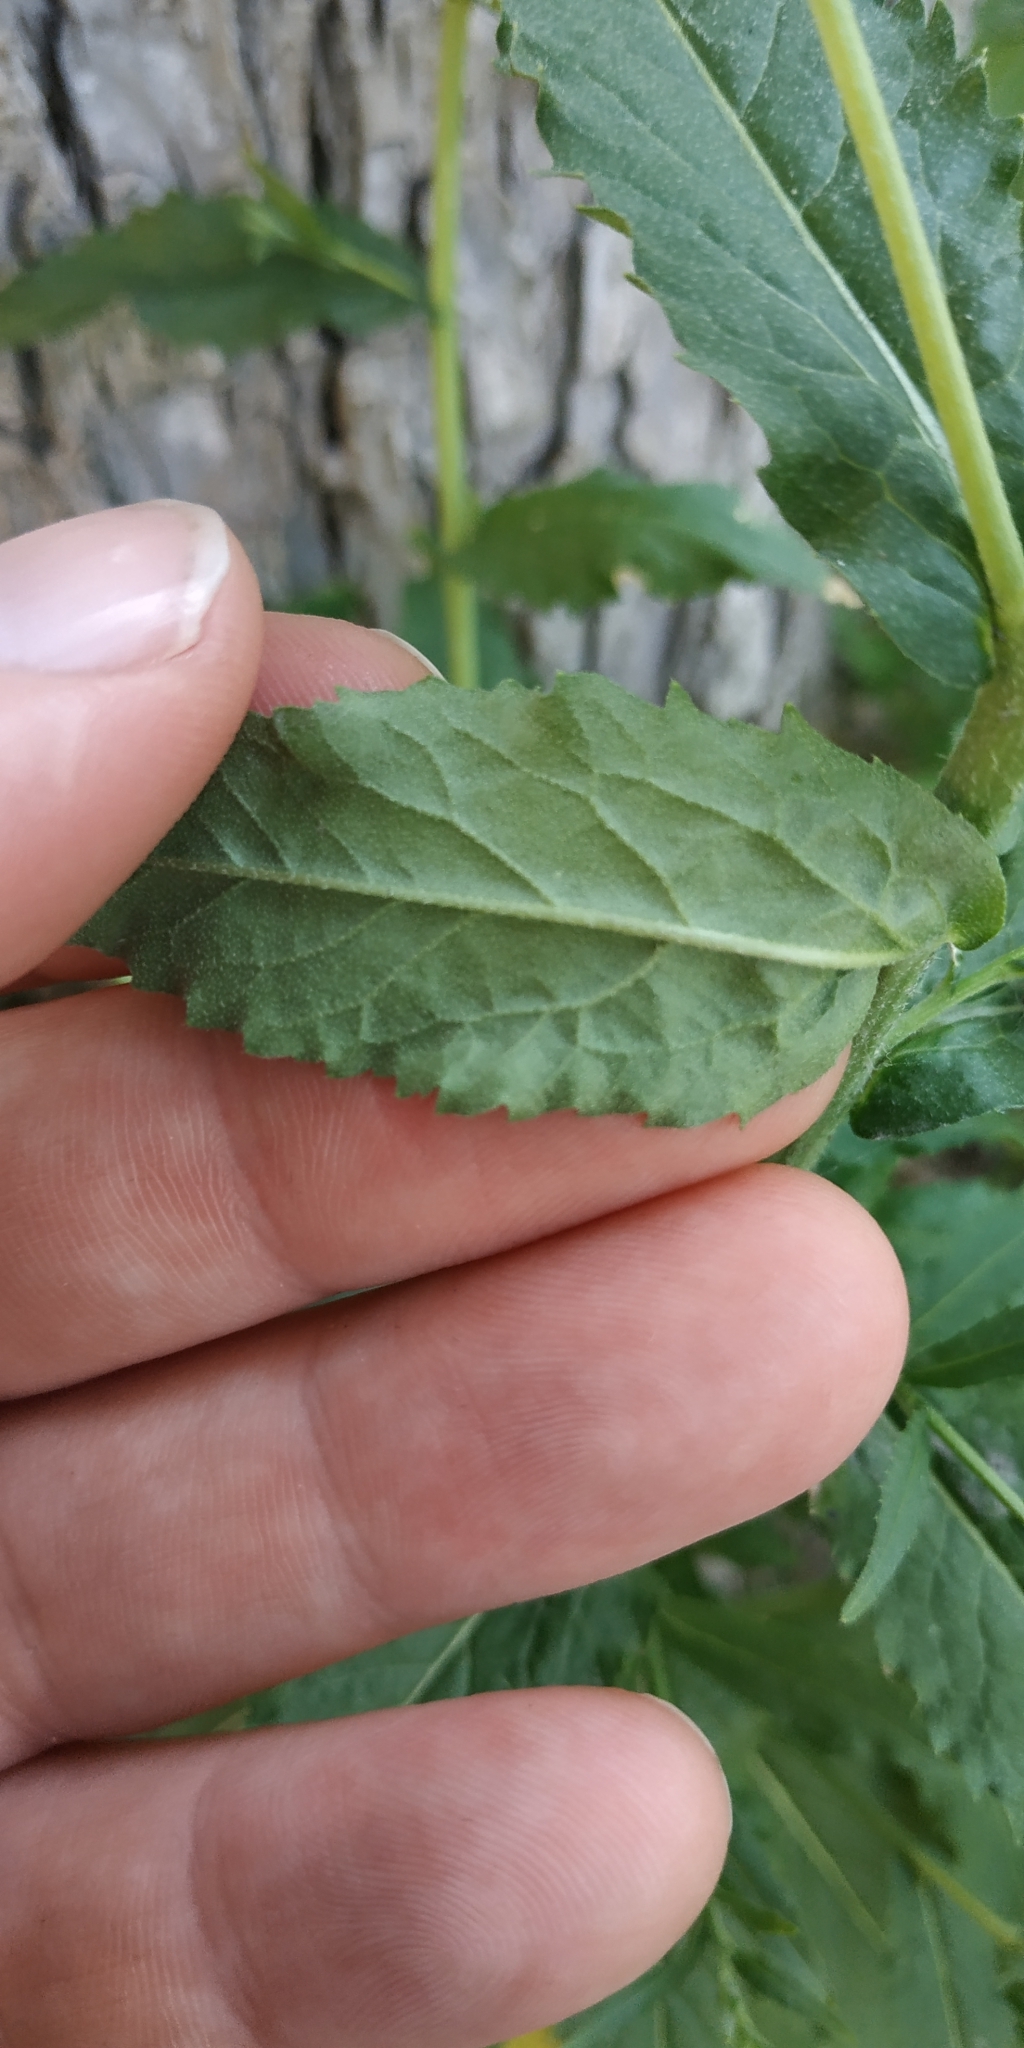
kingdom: Plantae
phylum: Tracheophyta
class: Magnoliopsida
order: Brassicales
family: Brassicaceae
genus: Catolobus
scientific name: Catolobus pendulus
